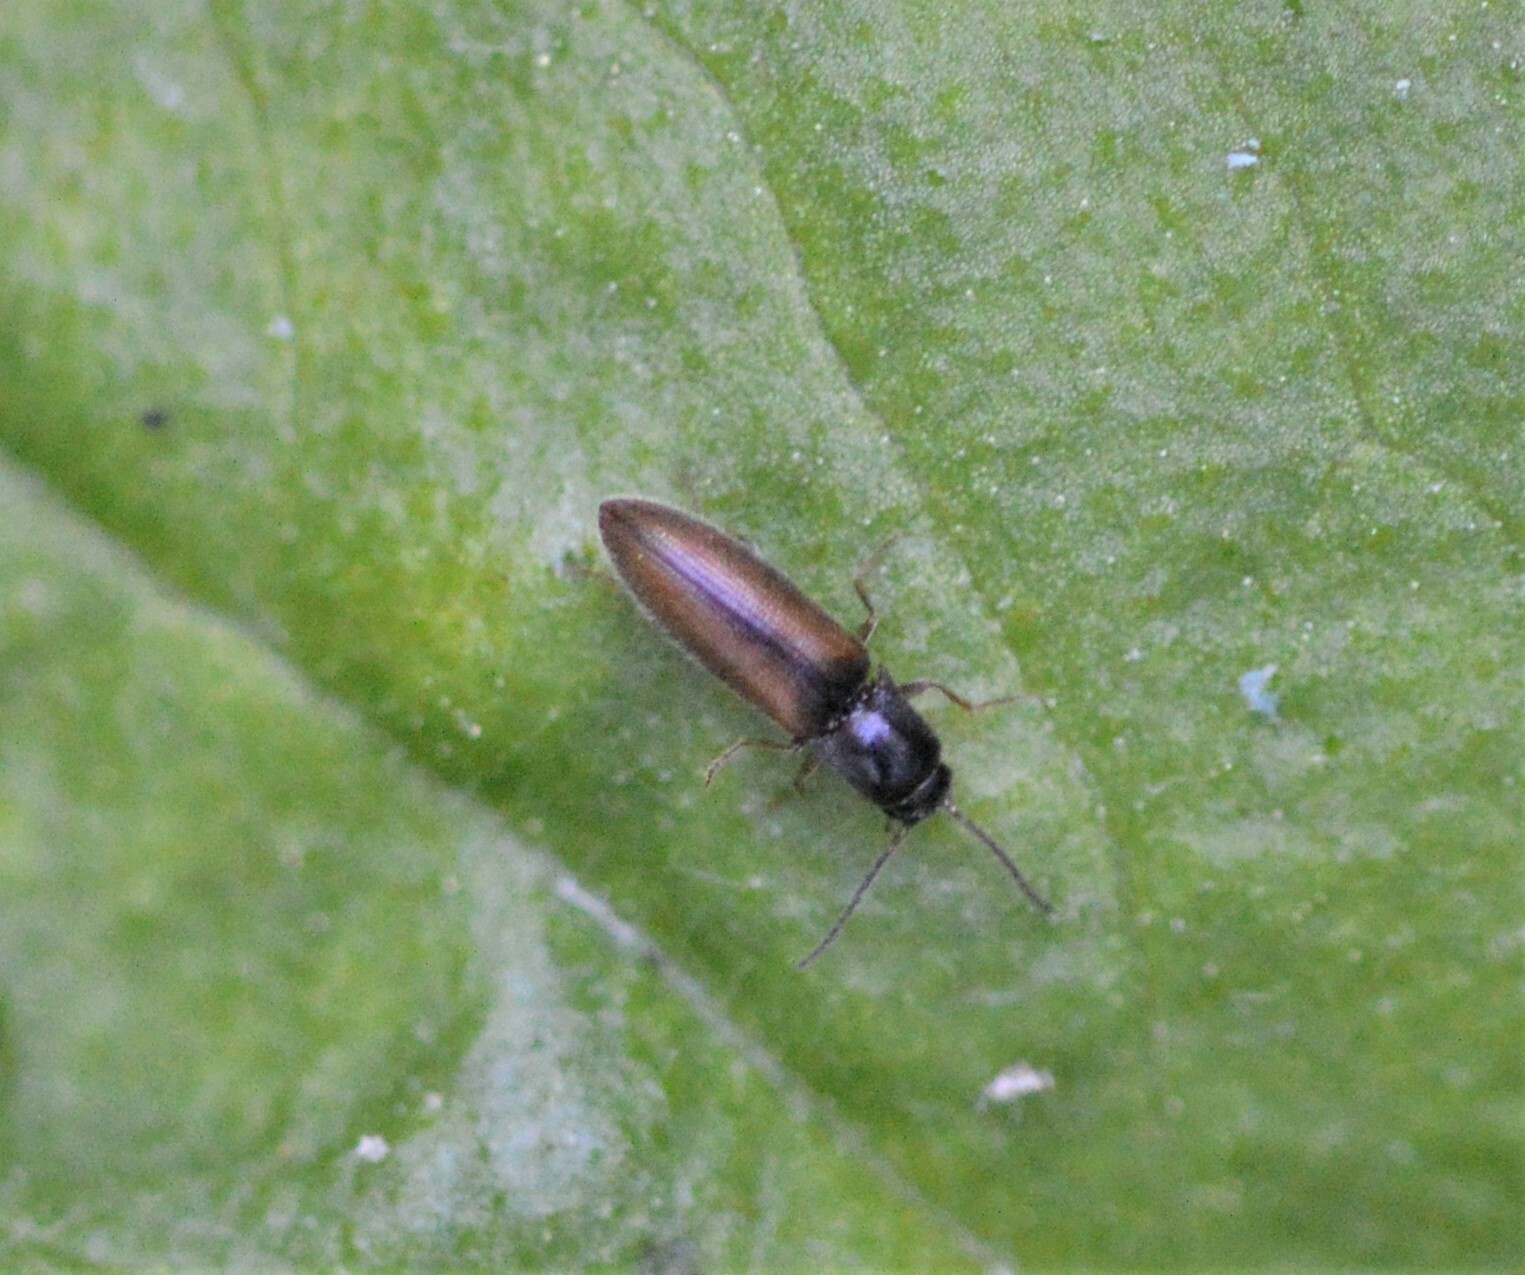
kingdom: Animalia
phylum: Arthropoda
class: Insecta
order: Coleoptera
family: Elateridae
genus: Agriotes
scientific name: Agriotes pallidulus
